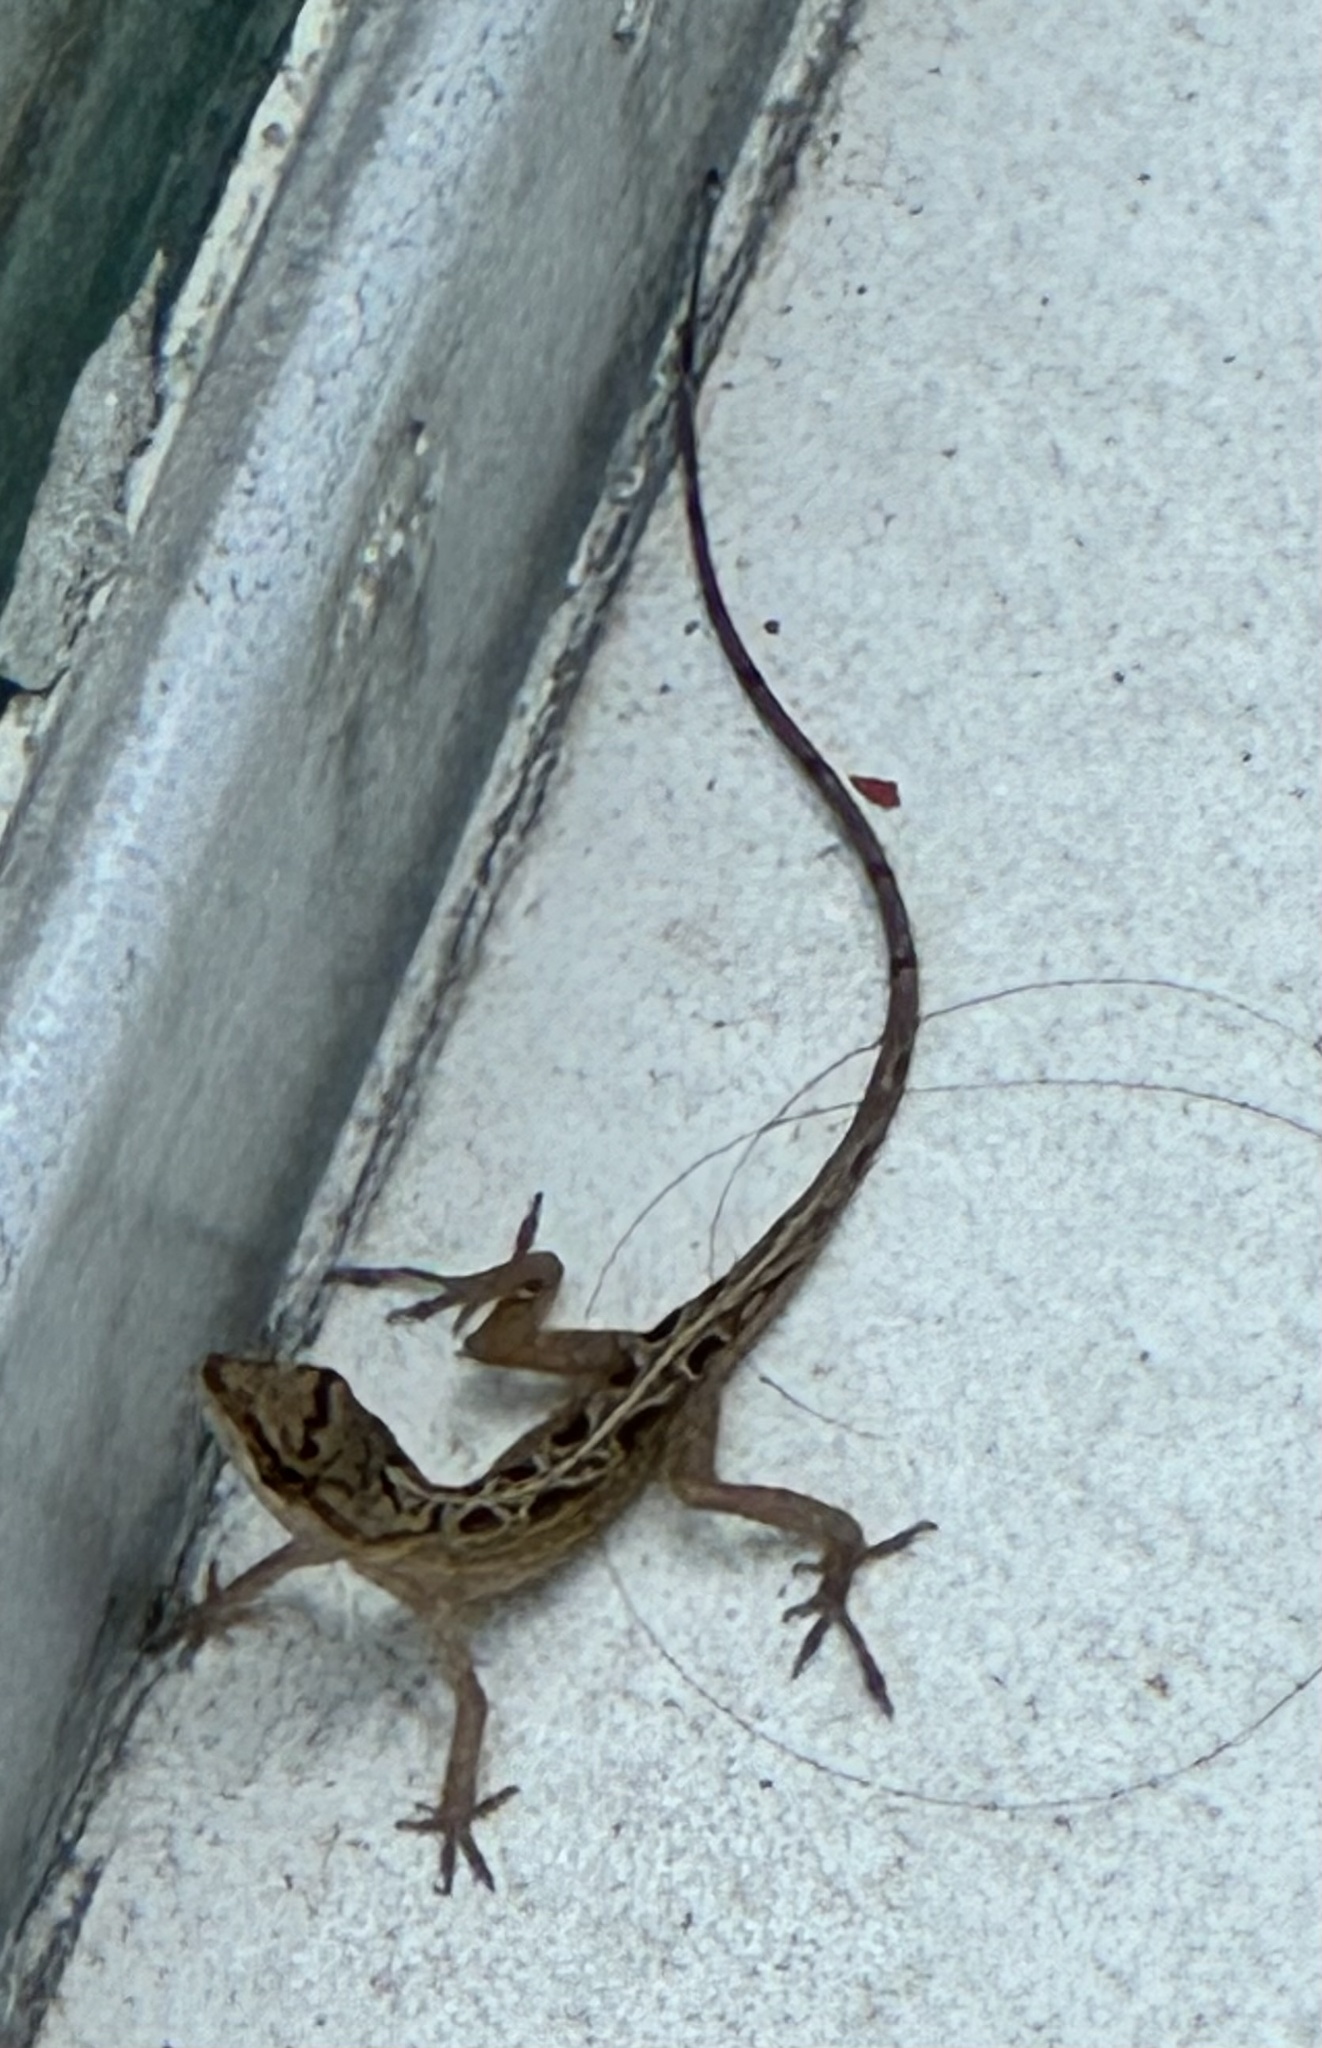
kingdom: Animalia
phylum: Chordata
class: Squamata
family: Dactyloidae
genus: Anolis
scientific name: Anolis nebulosus
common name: Clouded anole
